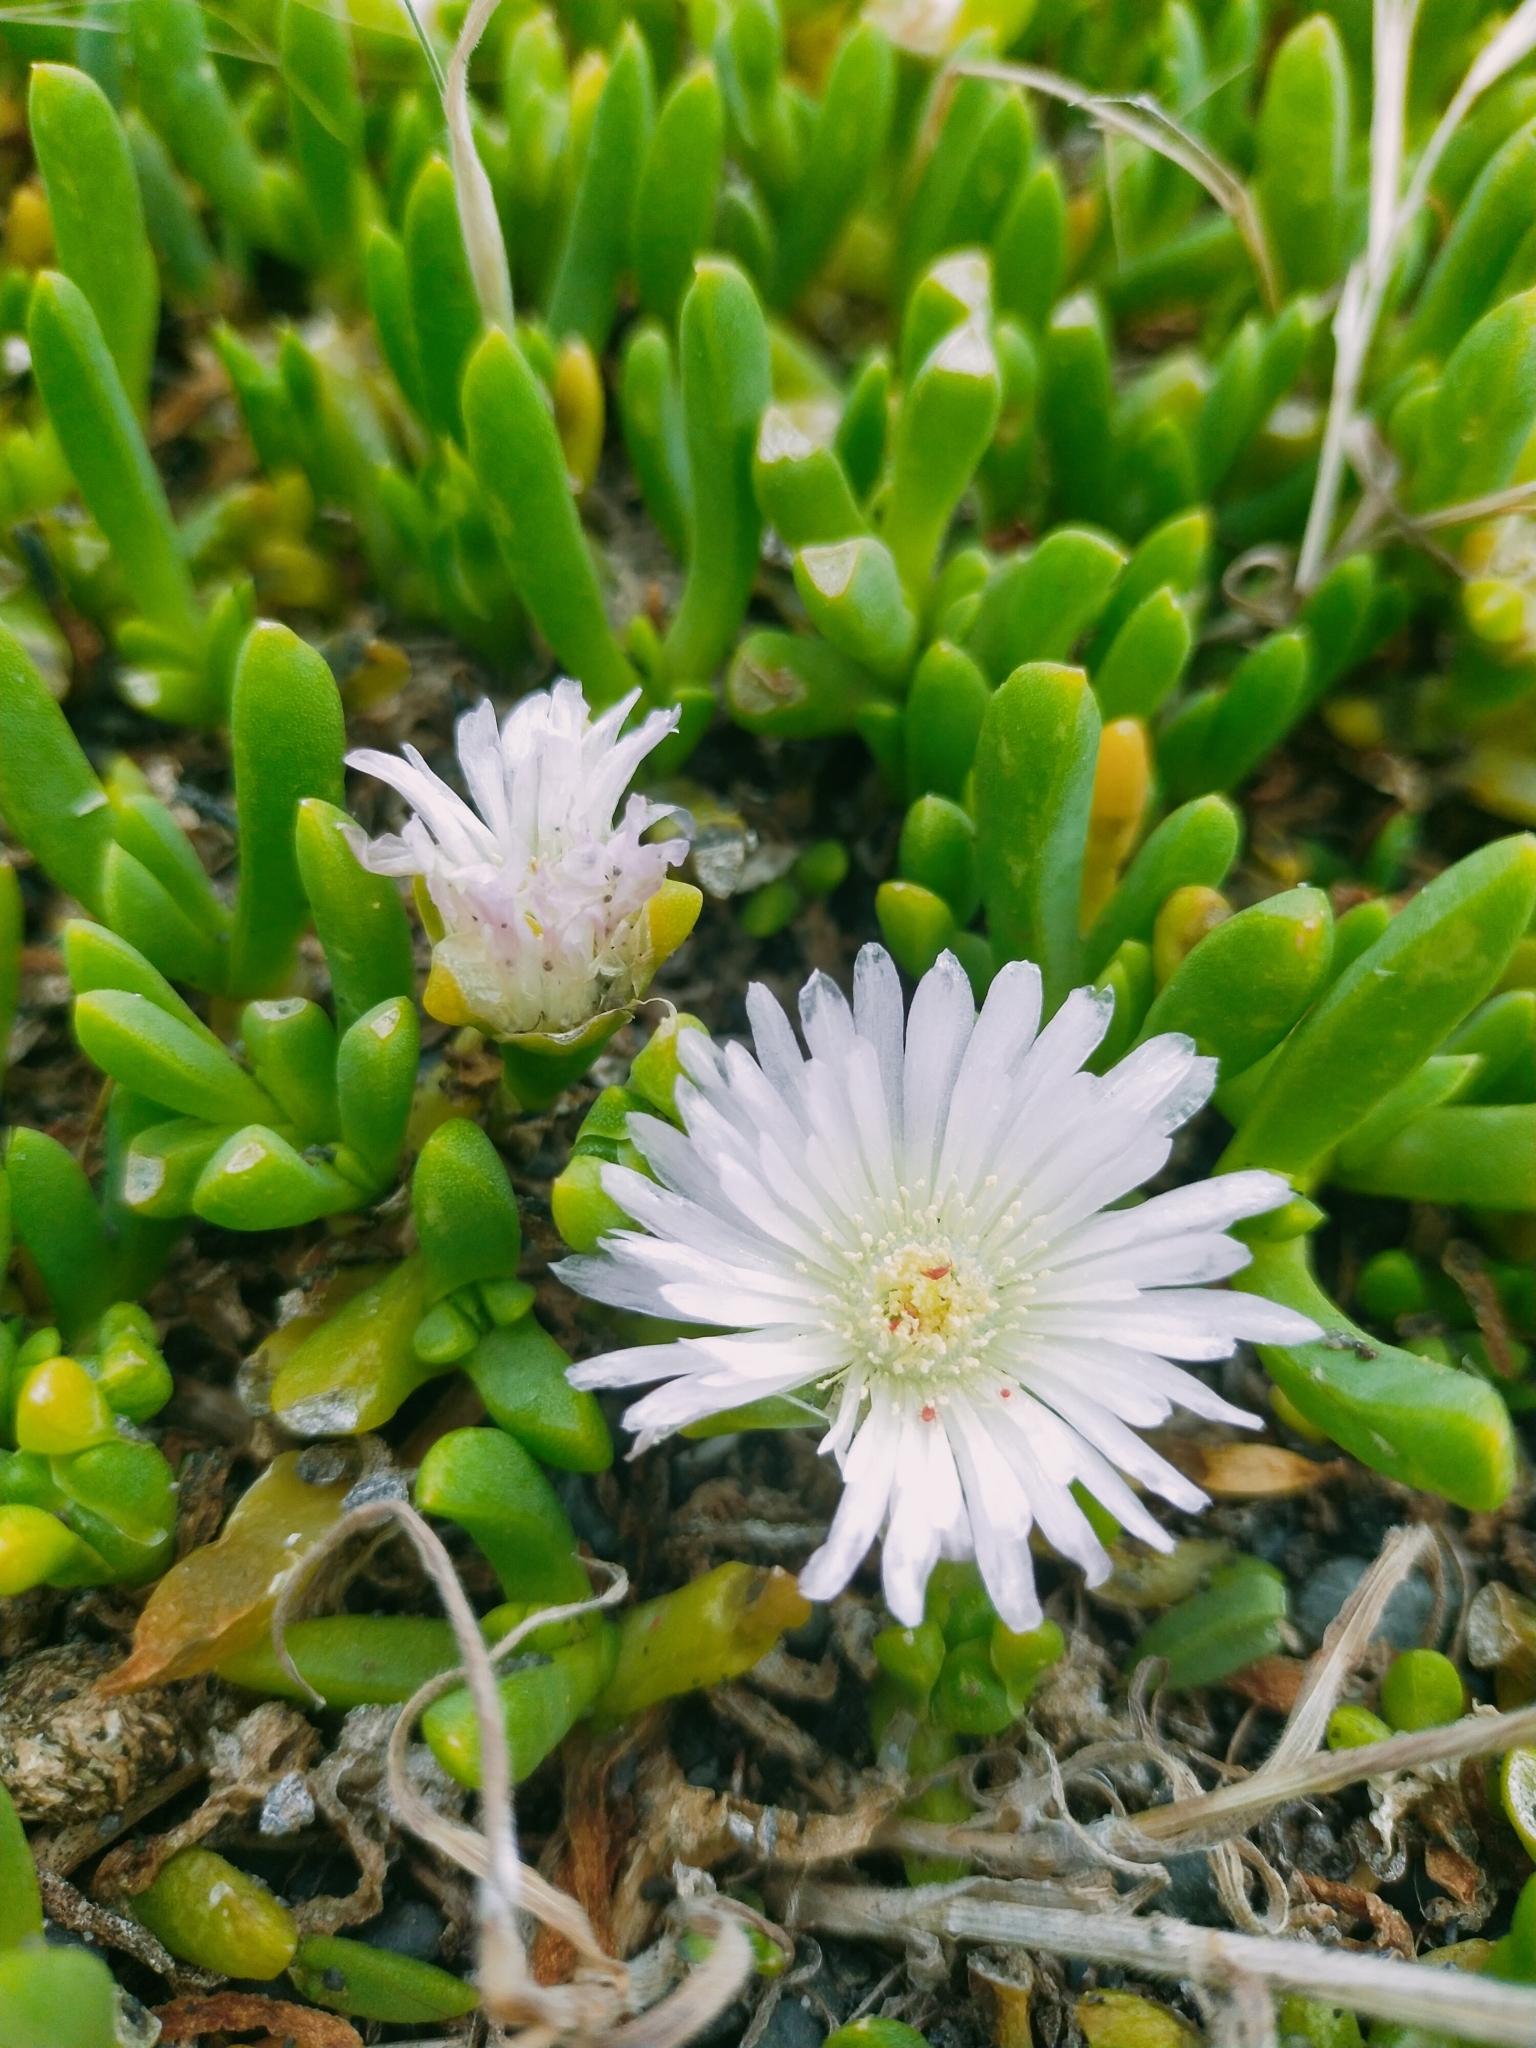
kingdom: Plantae
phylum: Tracheophyta
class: Magnoliopsida
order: Caryophyllales
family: Aizoaceae
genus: Disphyma
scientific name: Disphyma australe
